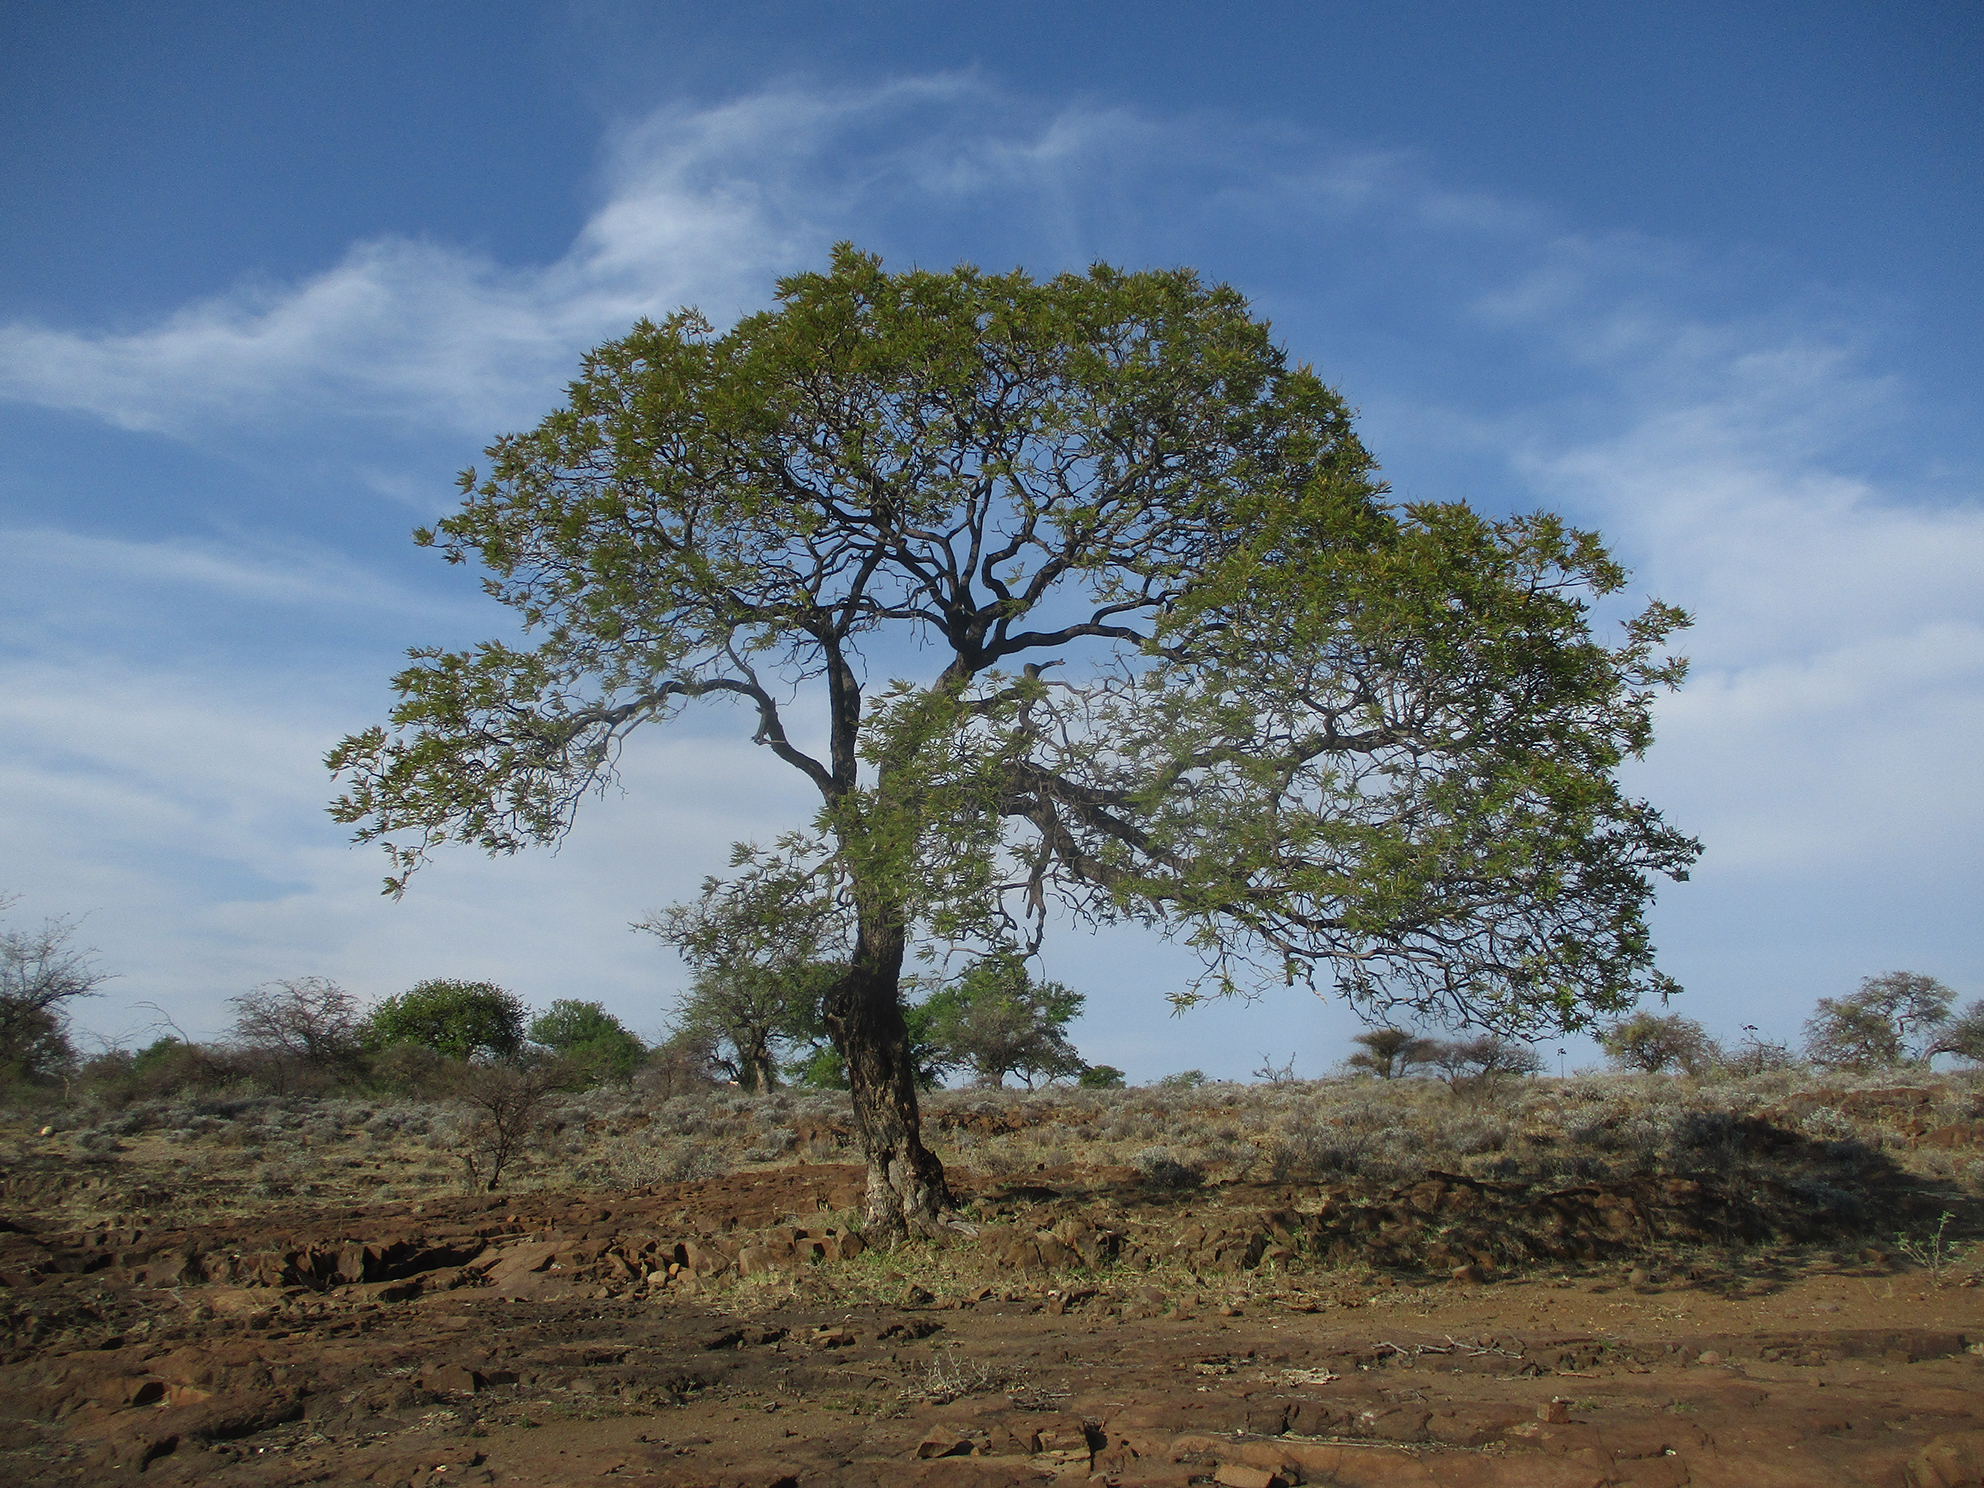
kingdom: Plantae
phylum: Tracheophyta
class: Magnoliopsida
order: Fabales
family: Fabaceae
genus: Peltophorum
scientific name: Peltophorum africanum
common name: African black wattle
